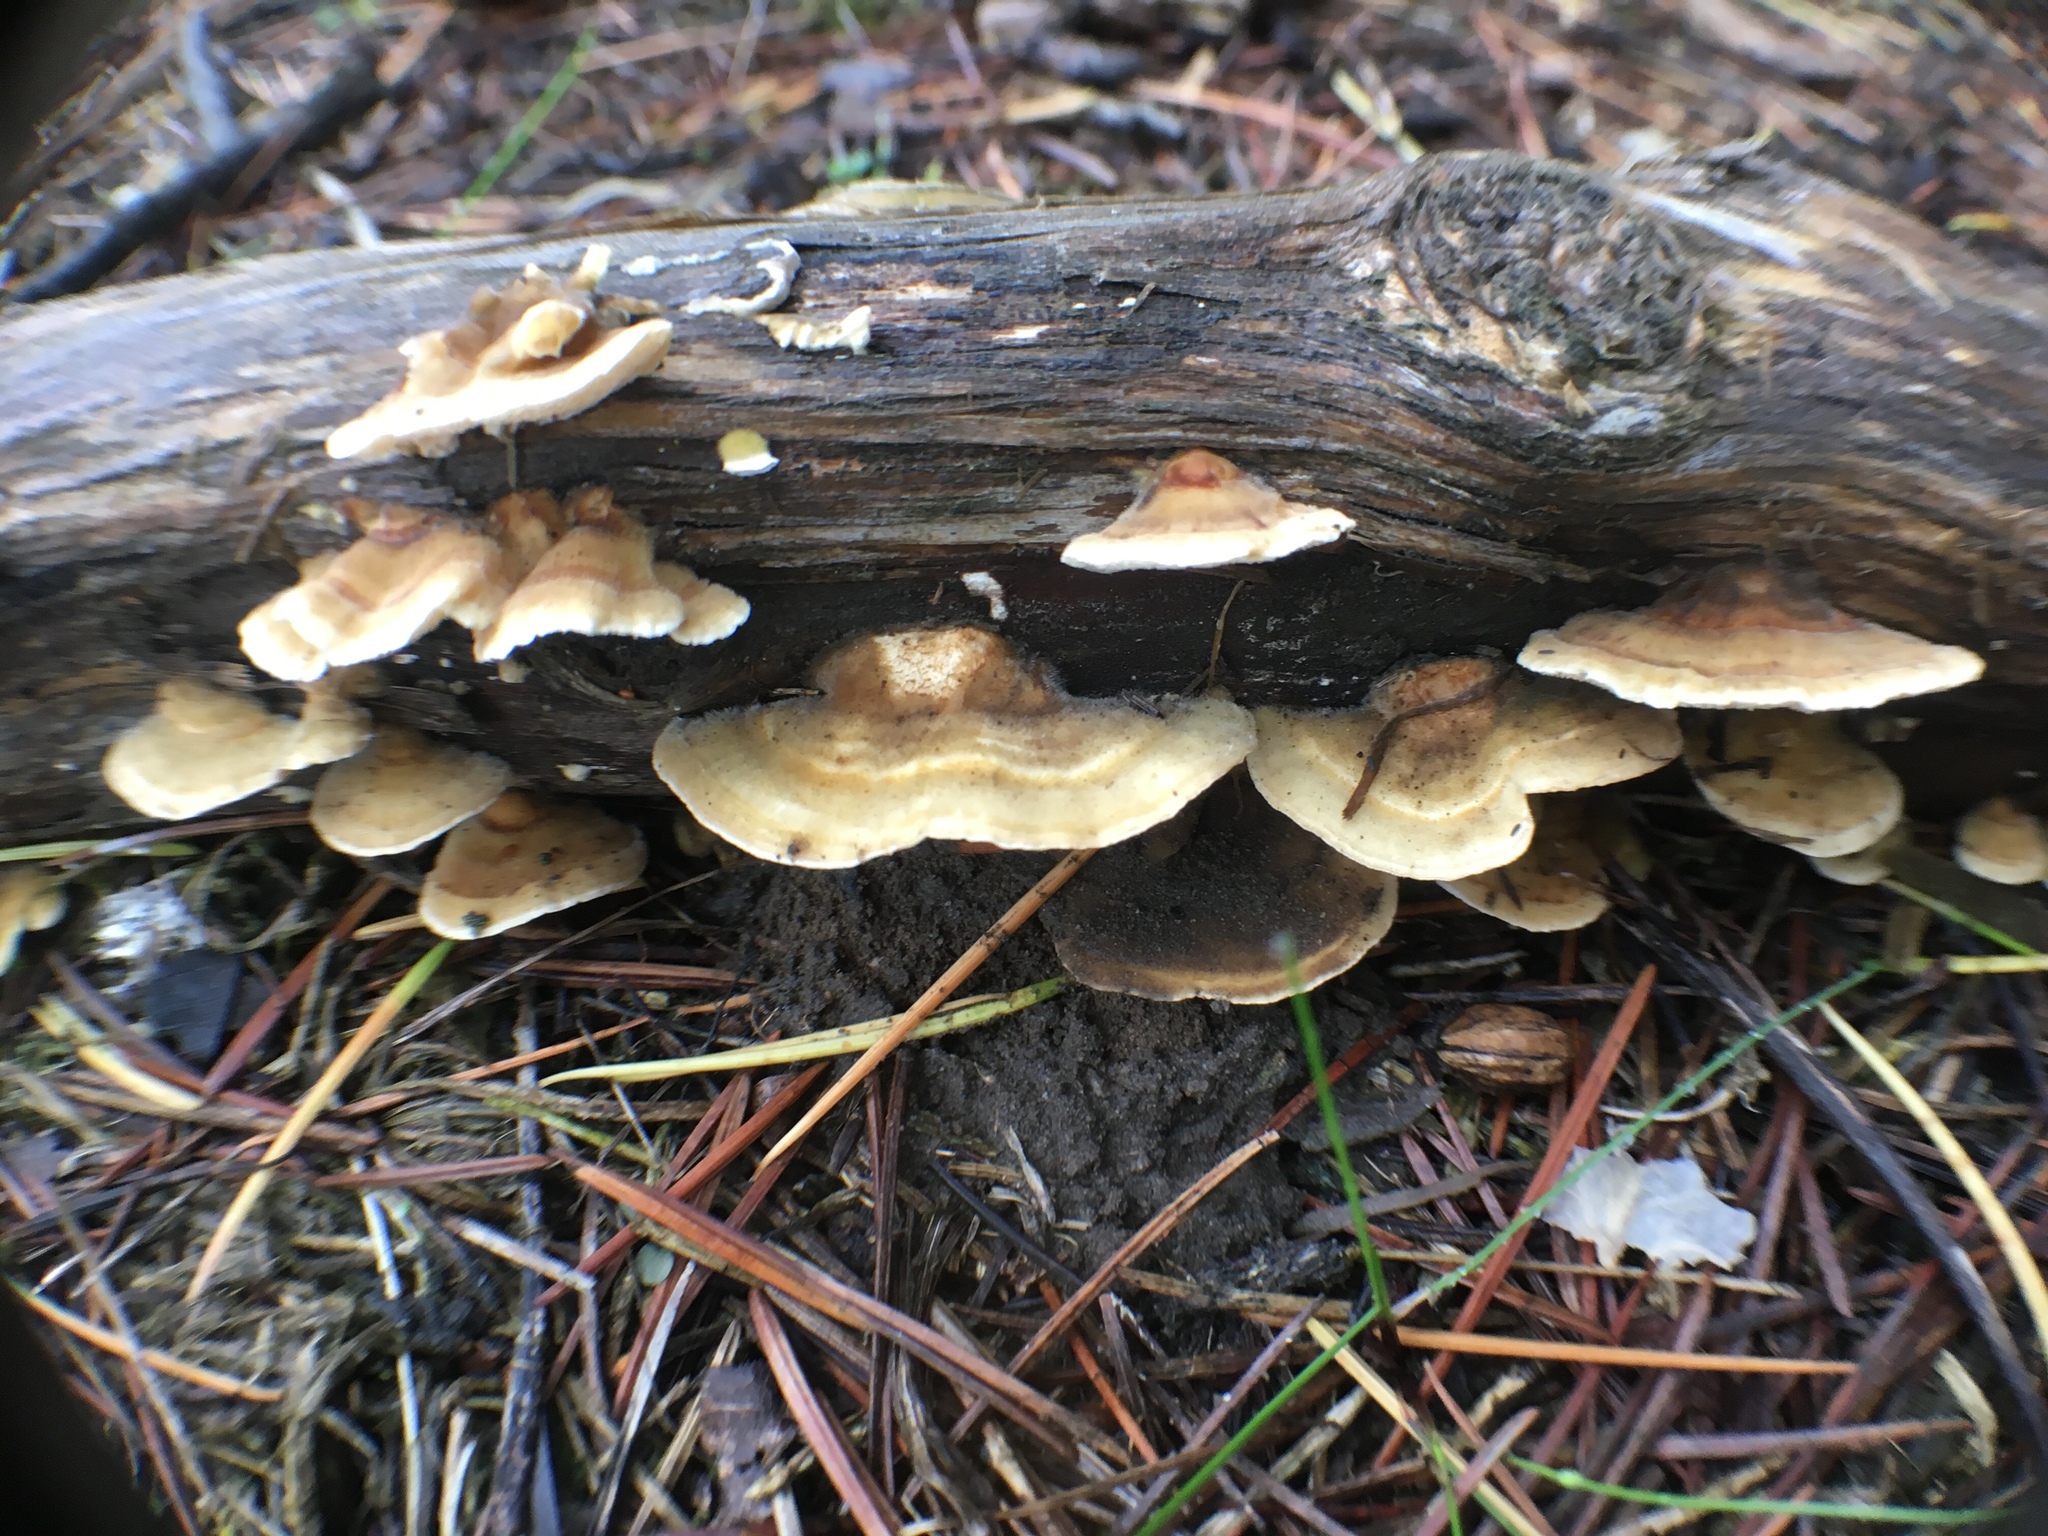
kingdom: Fungi
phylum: Basidiomycota
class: Agaricomycetes
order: Polyporales
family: Cerrenaceae
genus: Cerrena
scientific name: Cerrena zonata
